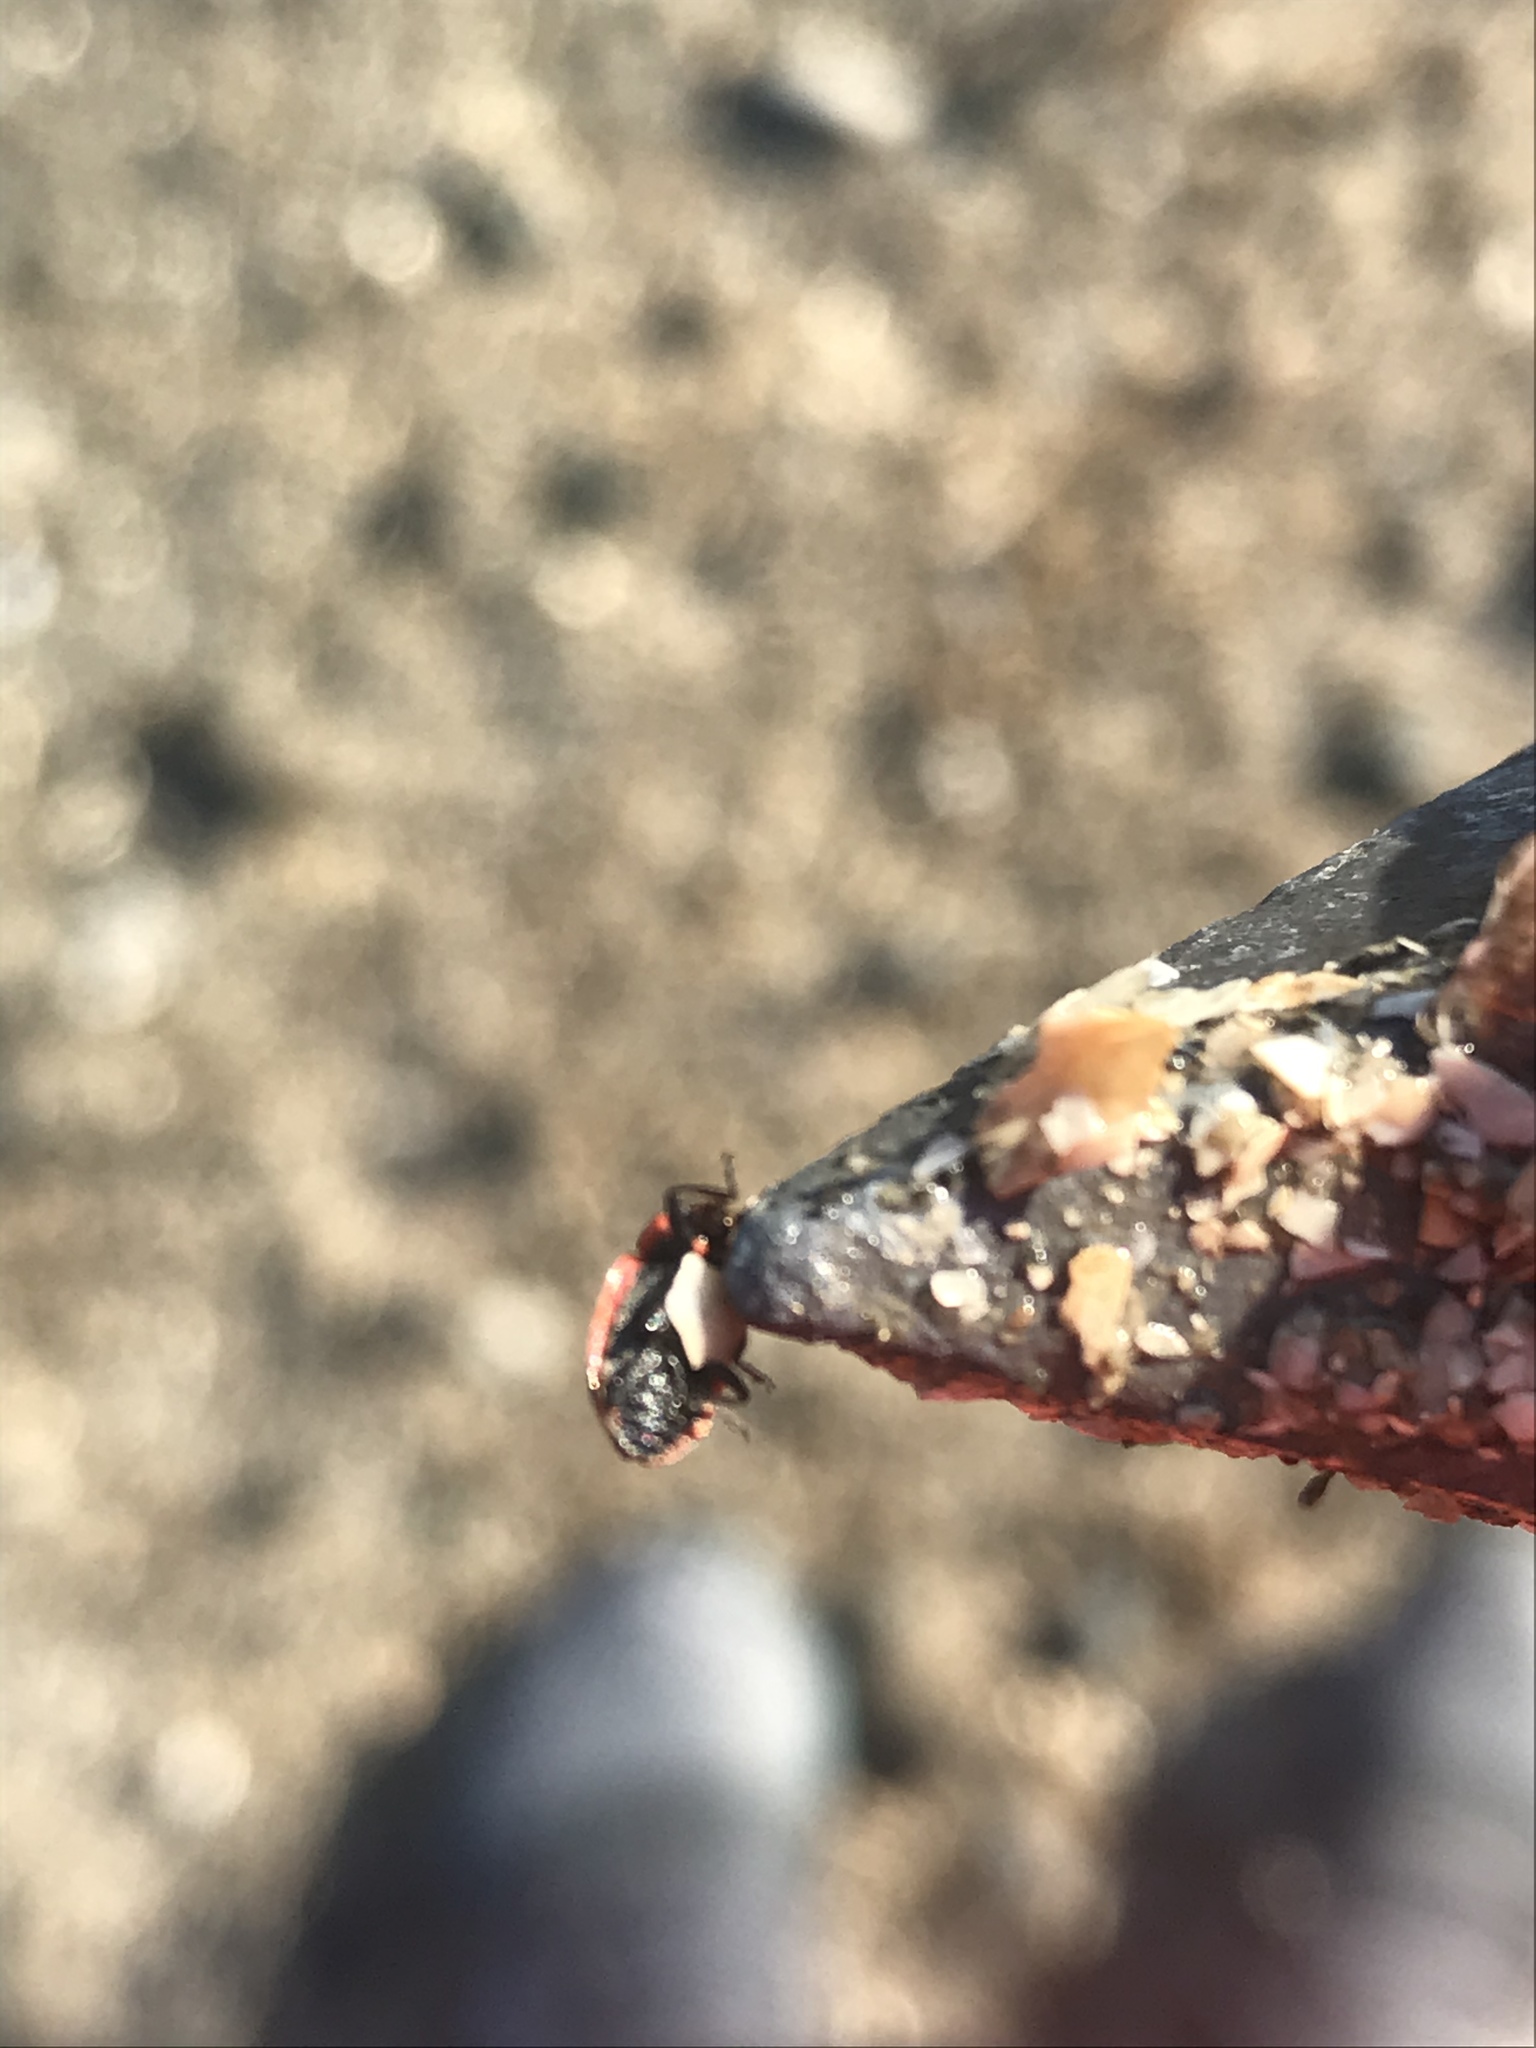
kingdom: Animalia
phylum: Arthropoda
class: Insecta
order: Coleoptera
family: Coccinellidae
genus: Naemia
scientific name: Naemia seriata
